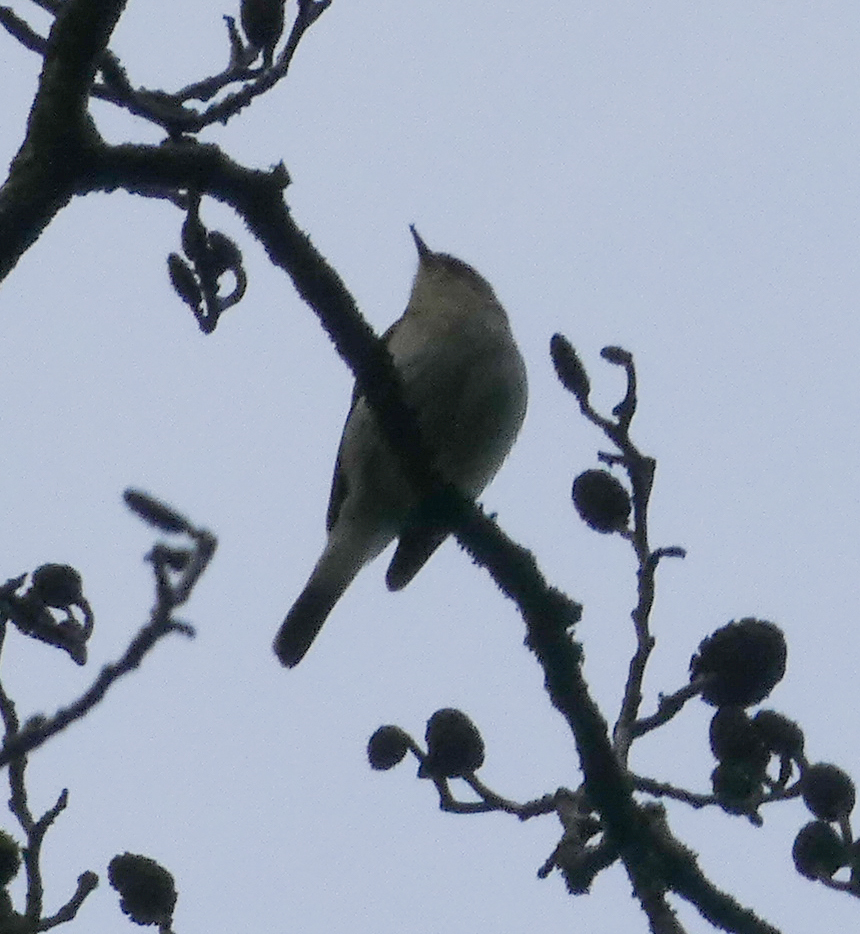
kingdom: Animalia
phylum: Chordata
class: Aves
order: Passeriformes
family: Phylloscopidae
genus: Phylloscopus
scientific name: Phylloscopus collybita
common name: Common chiffchaff
